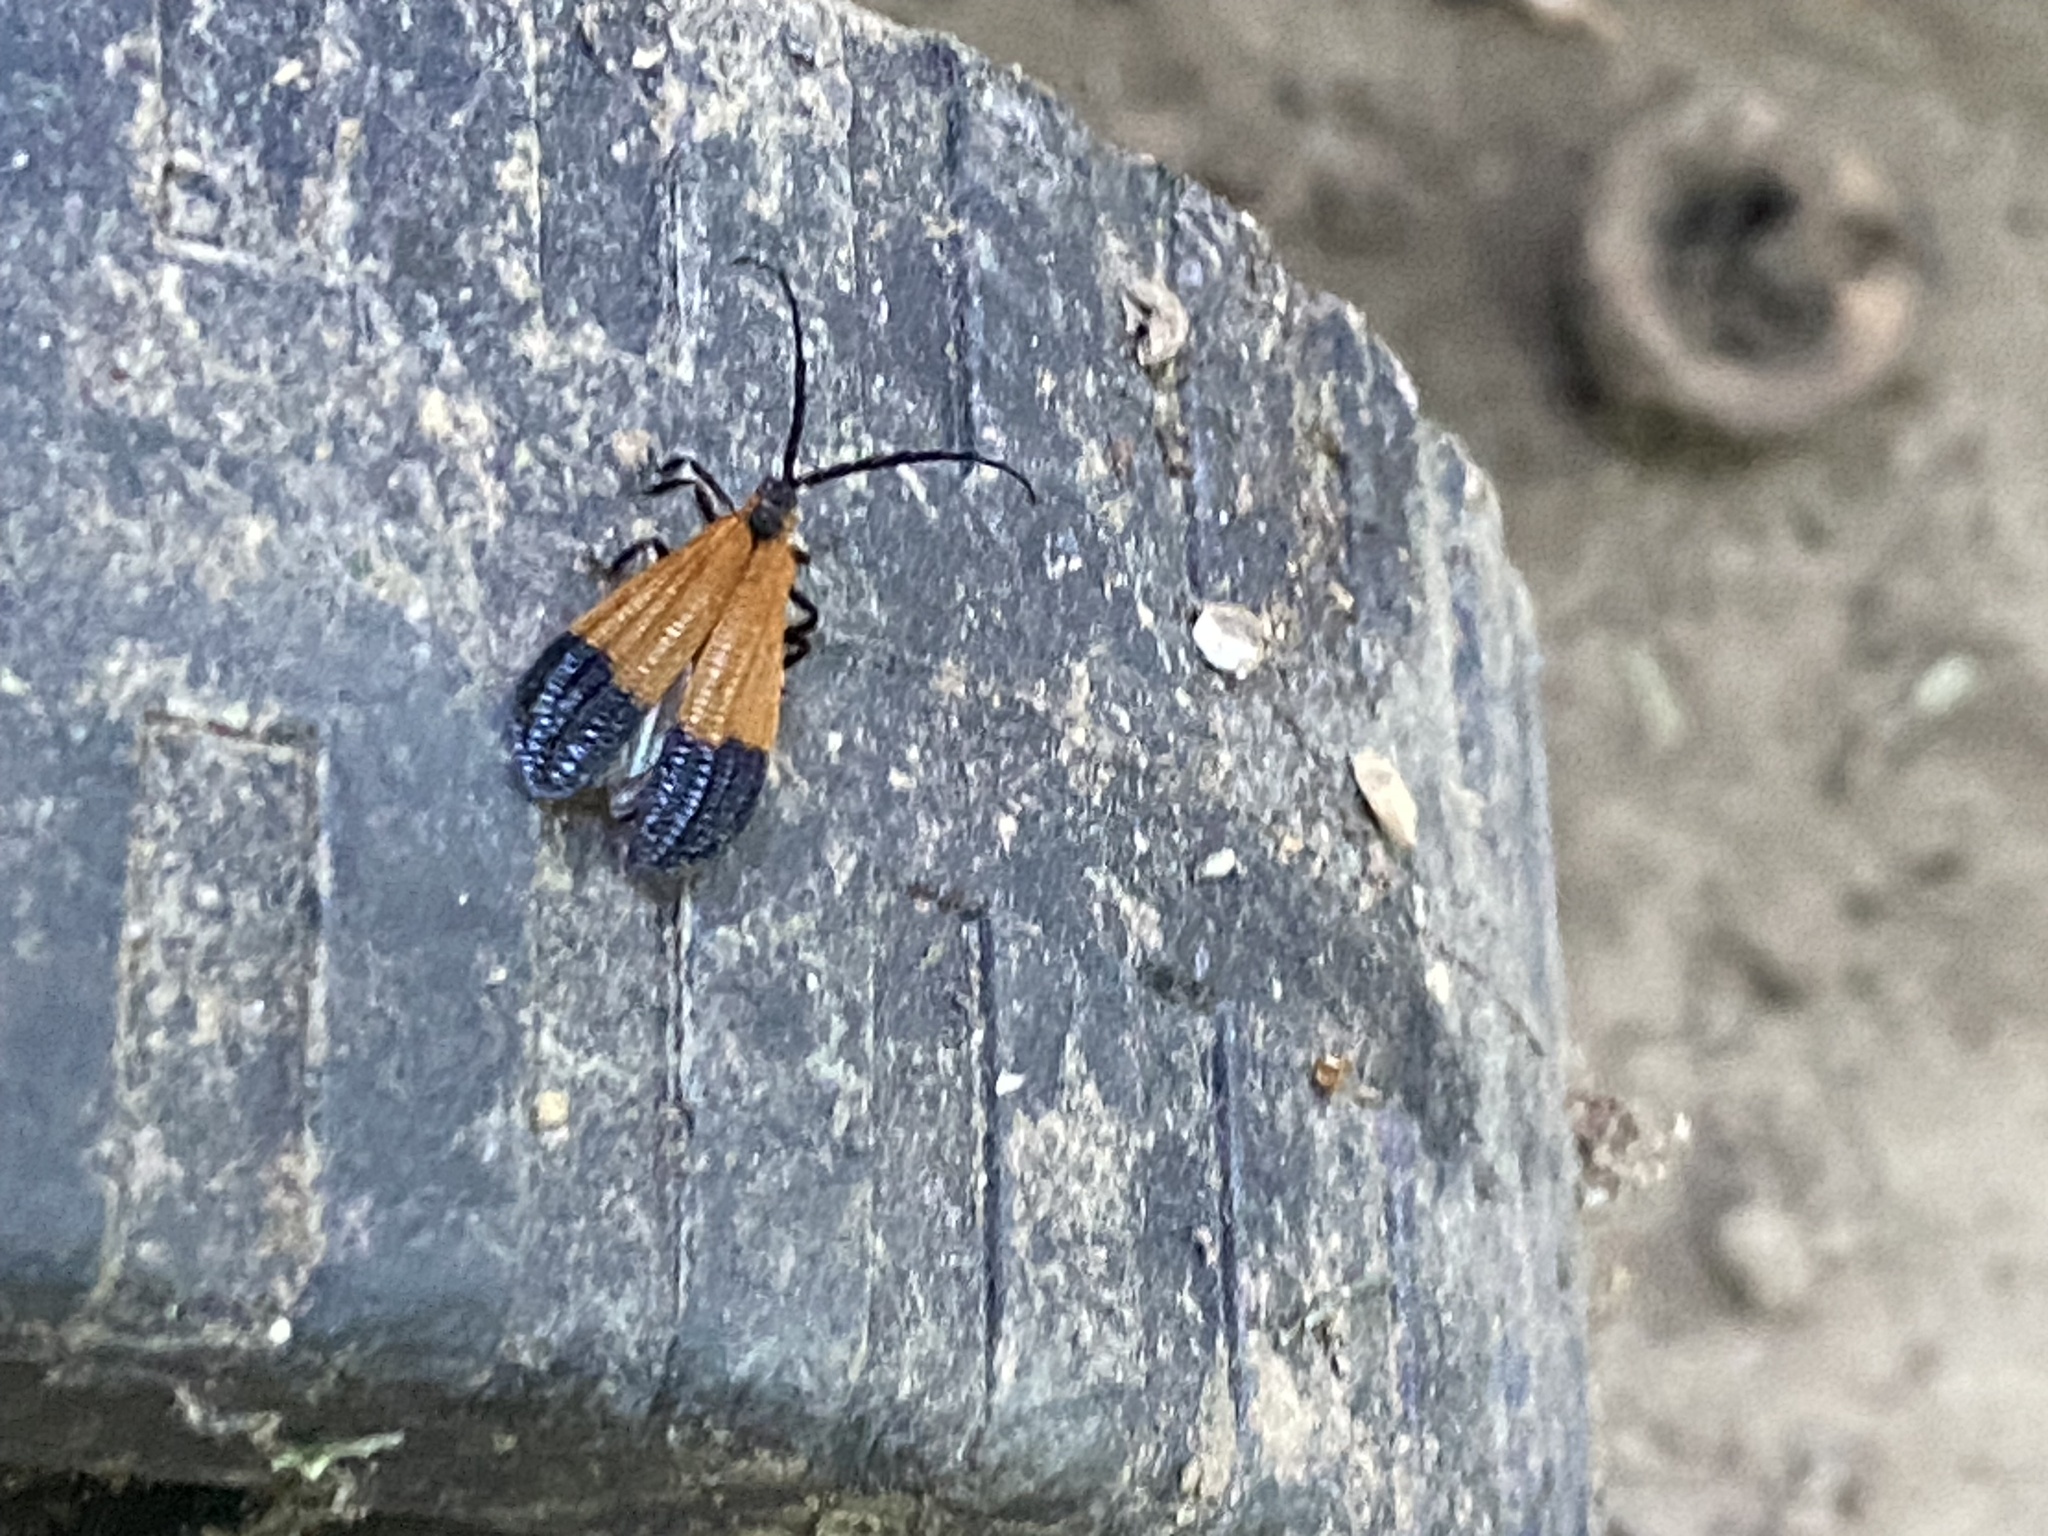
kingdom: Animalia
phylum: Arthropoda
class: Insecta
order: Coleoptera
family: Lycidae
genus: Calopteron
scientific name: Calopteron terminale
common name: End band net-winged beetle
